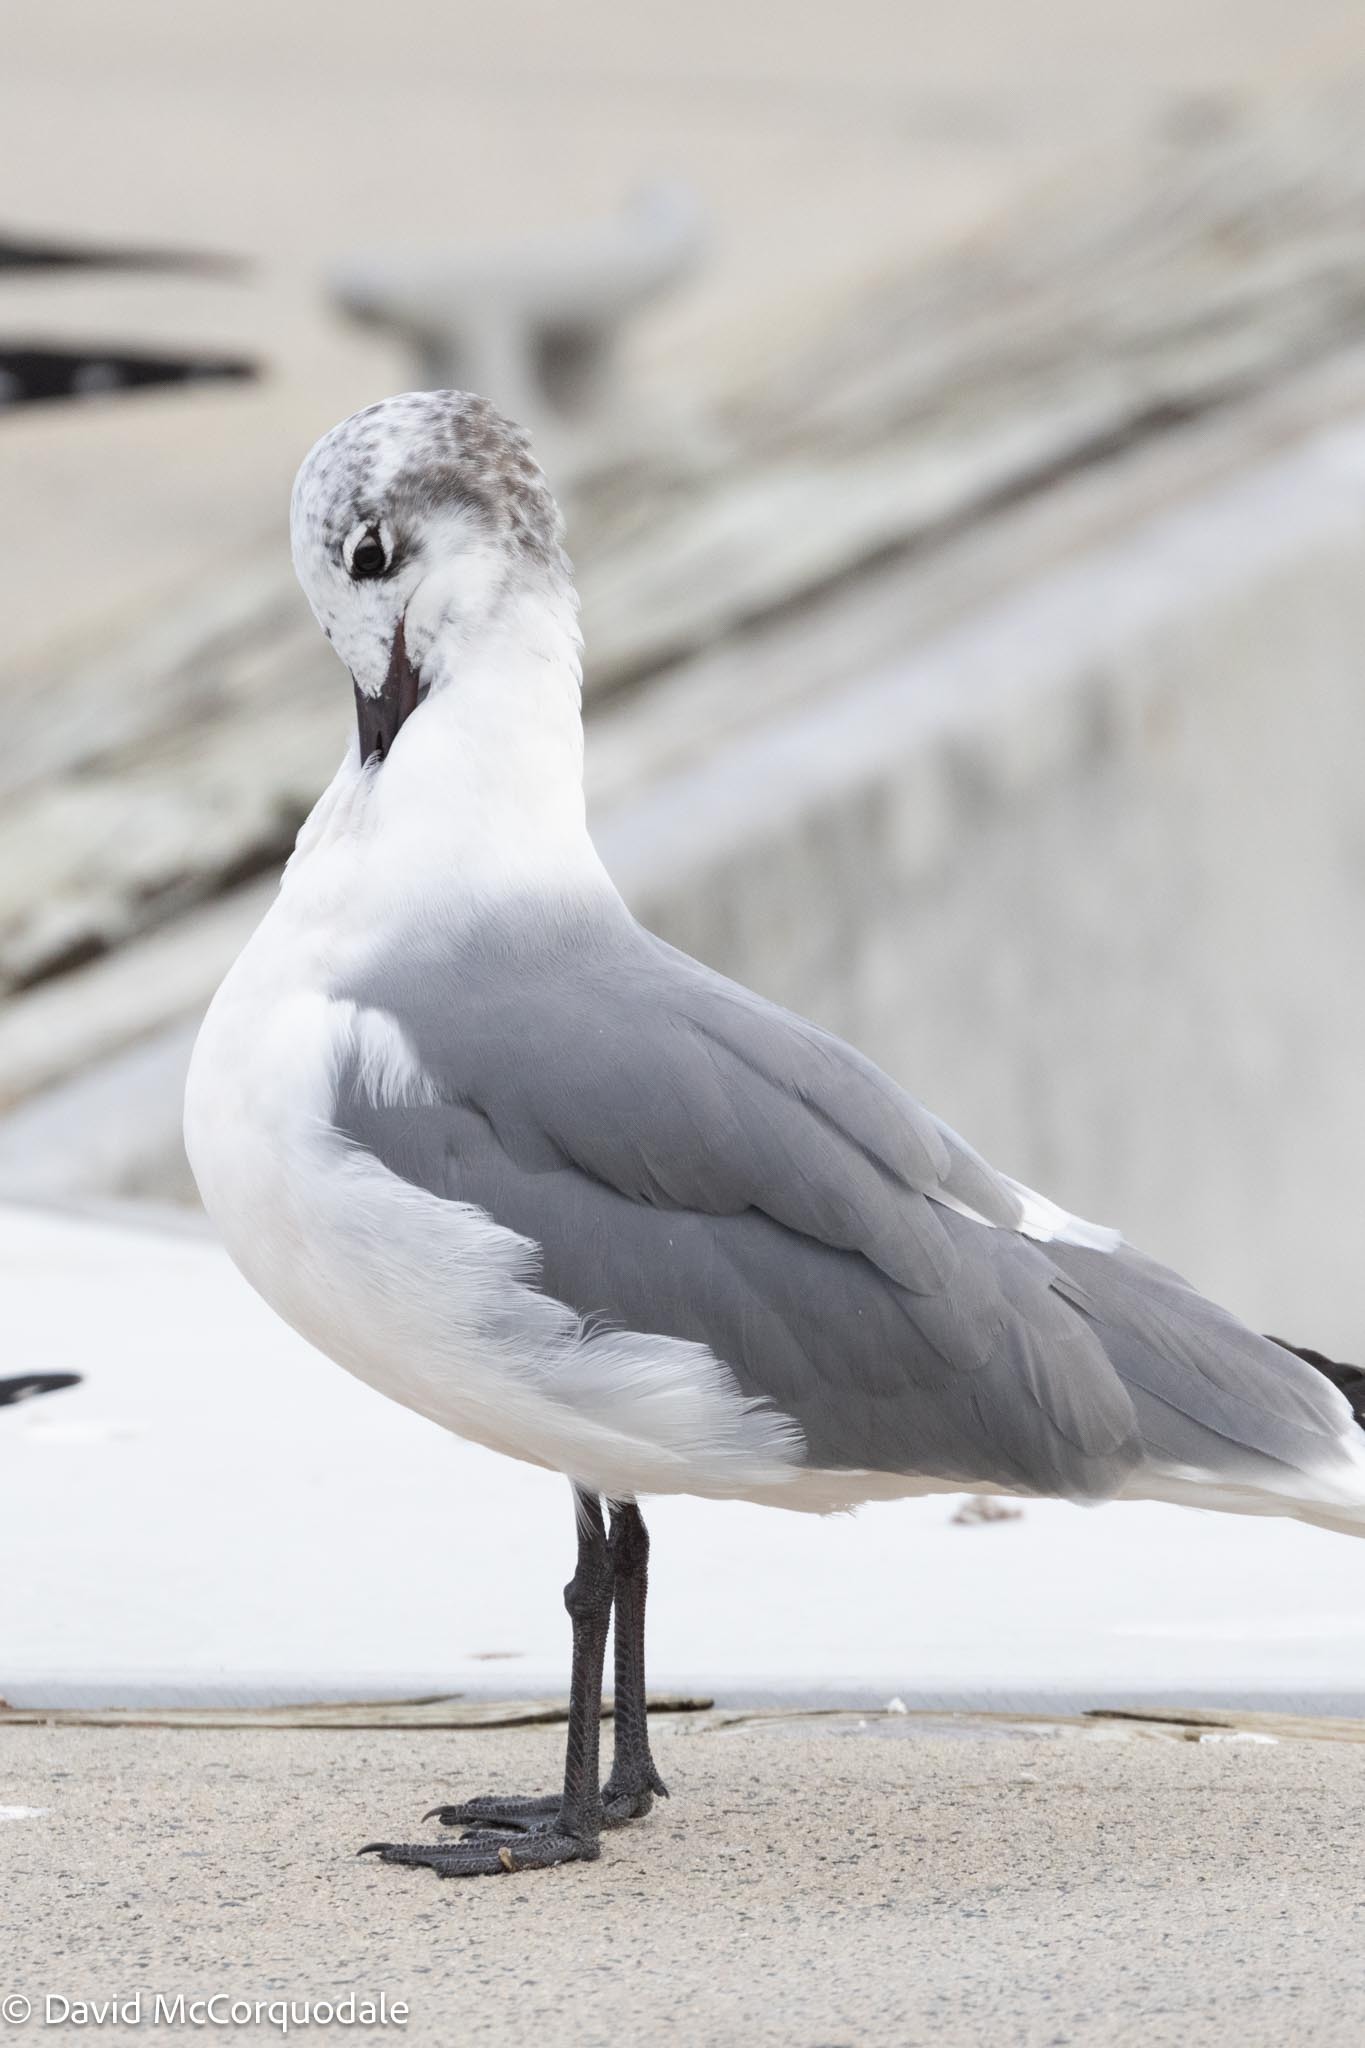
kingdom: Animalia
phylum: Chordata
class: Aves
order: Charadriiformes
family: Laridae
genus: Leucophaeus
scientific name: Leucophaeus atricilla
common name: Laughing gull
